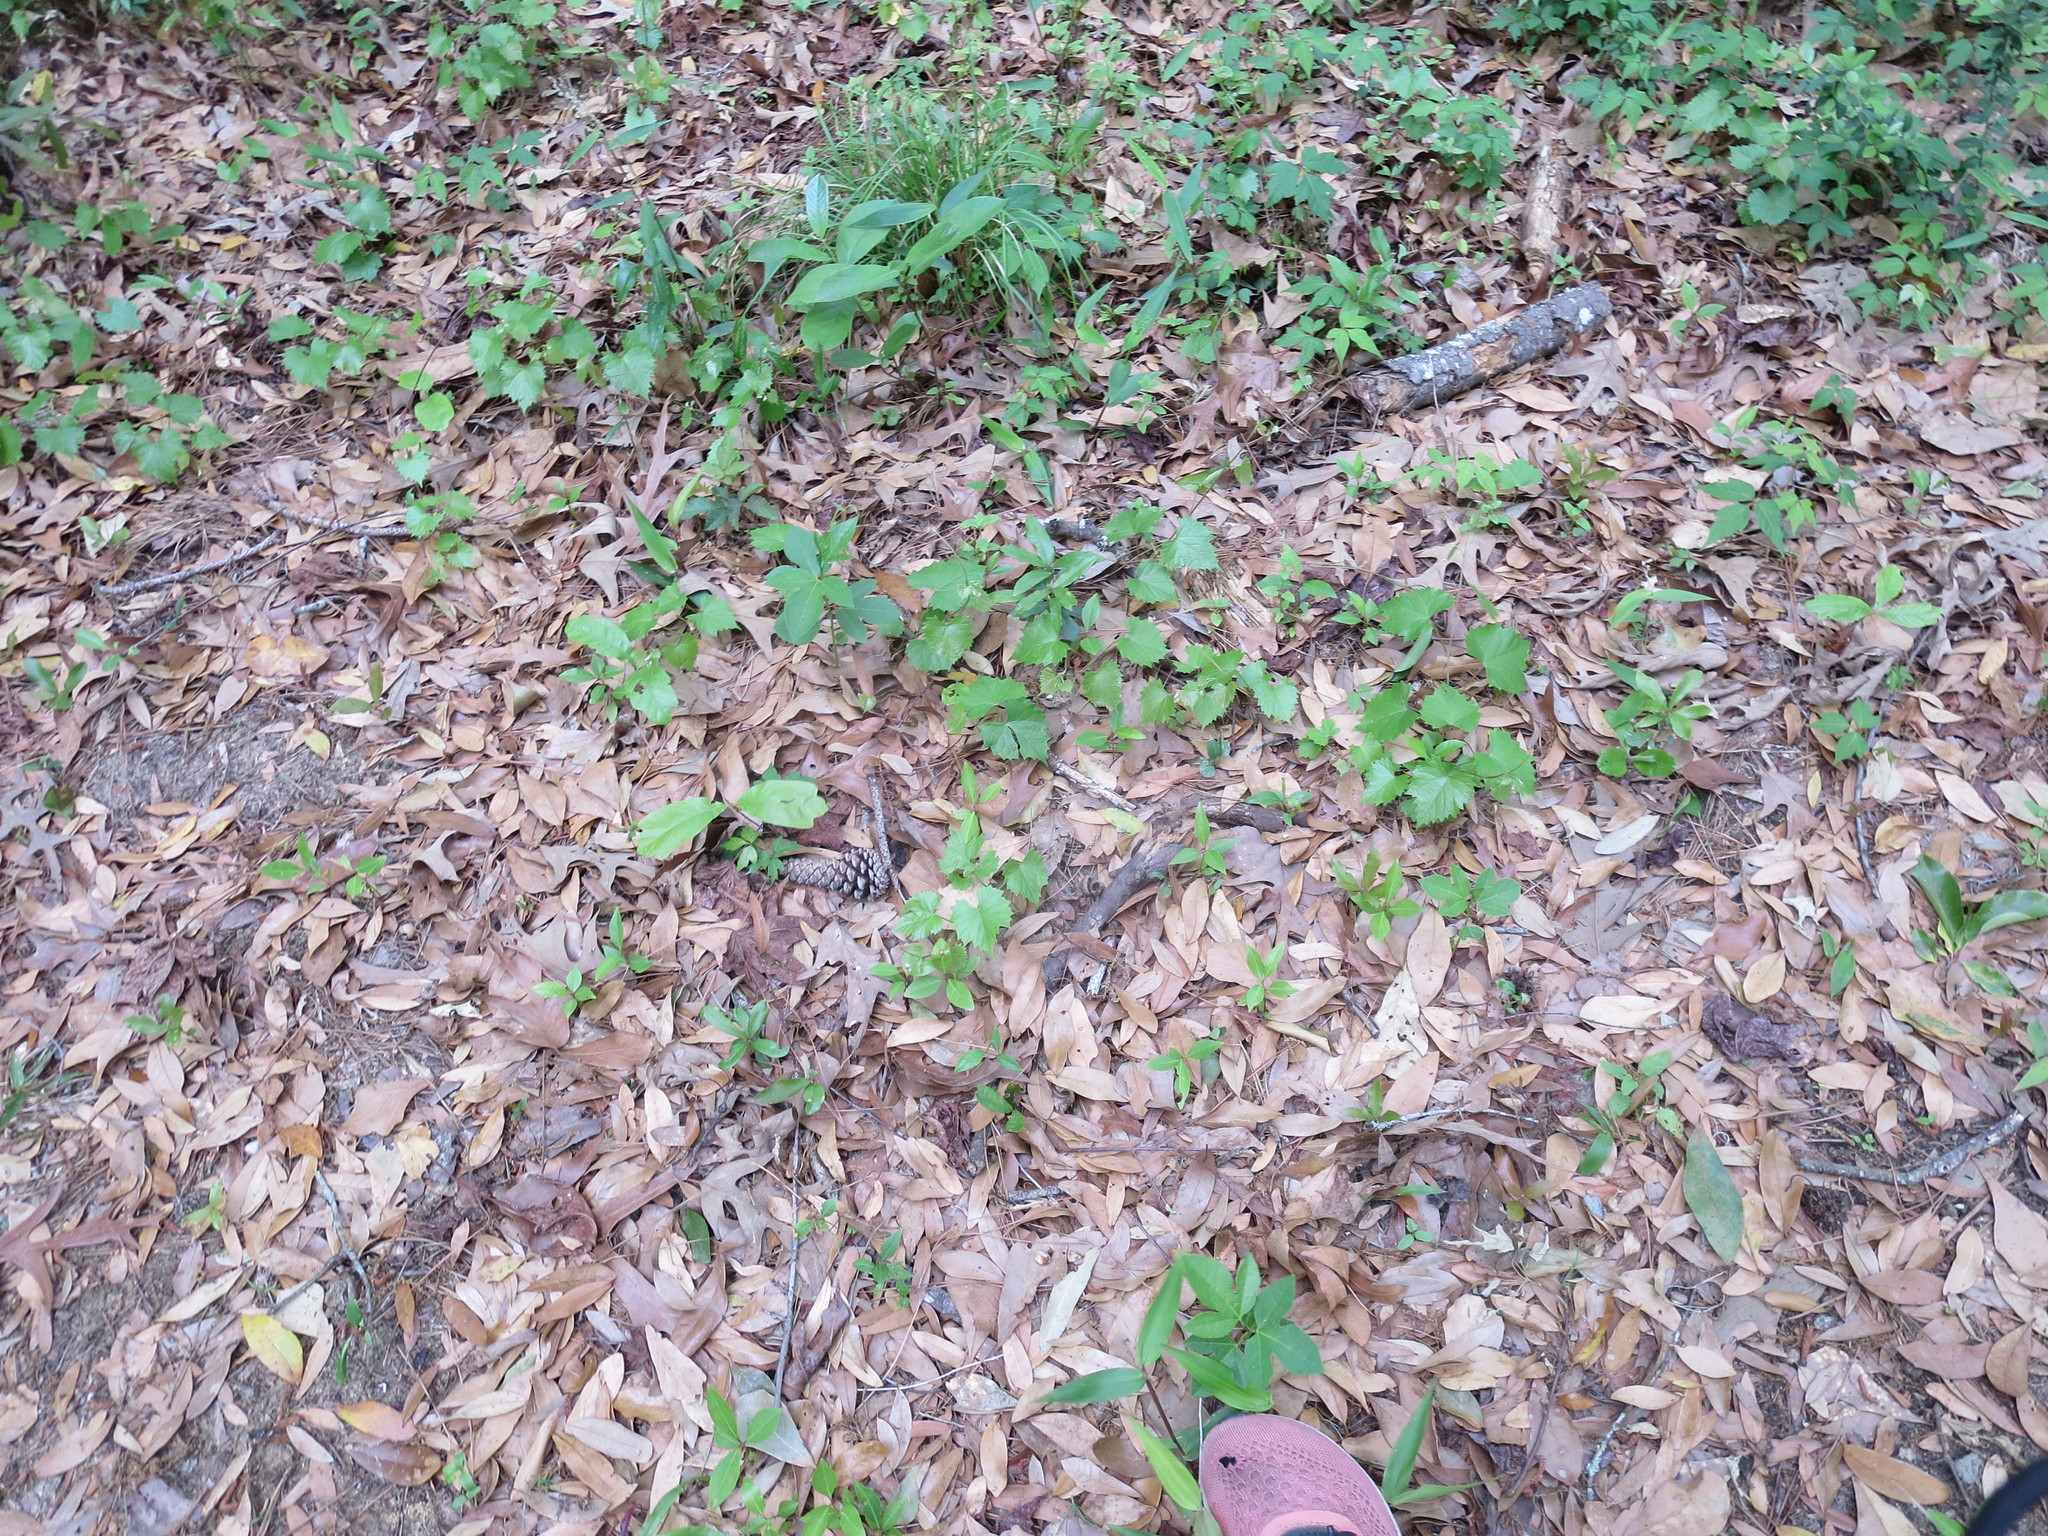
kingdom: Plantae
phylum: Tracheophyta
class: Magnoliopsida
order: Malpighiales
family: Passifloraceae
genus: Passiflora
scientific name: Passiflora incarnata
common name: Apricot-vine
